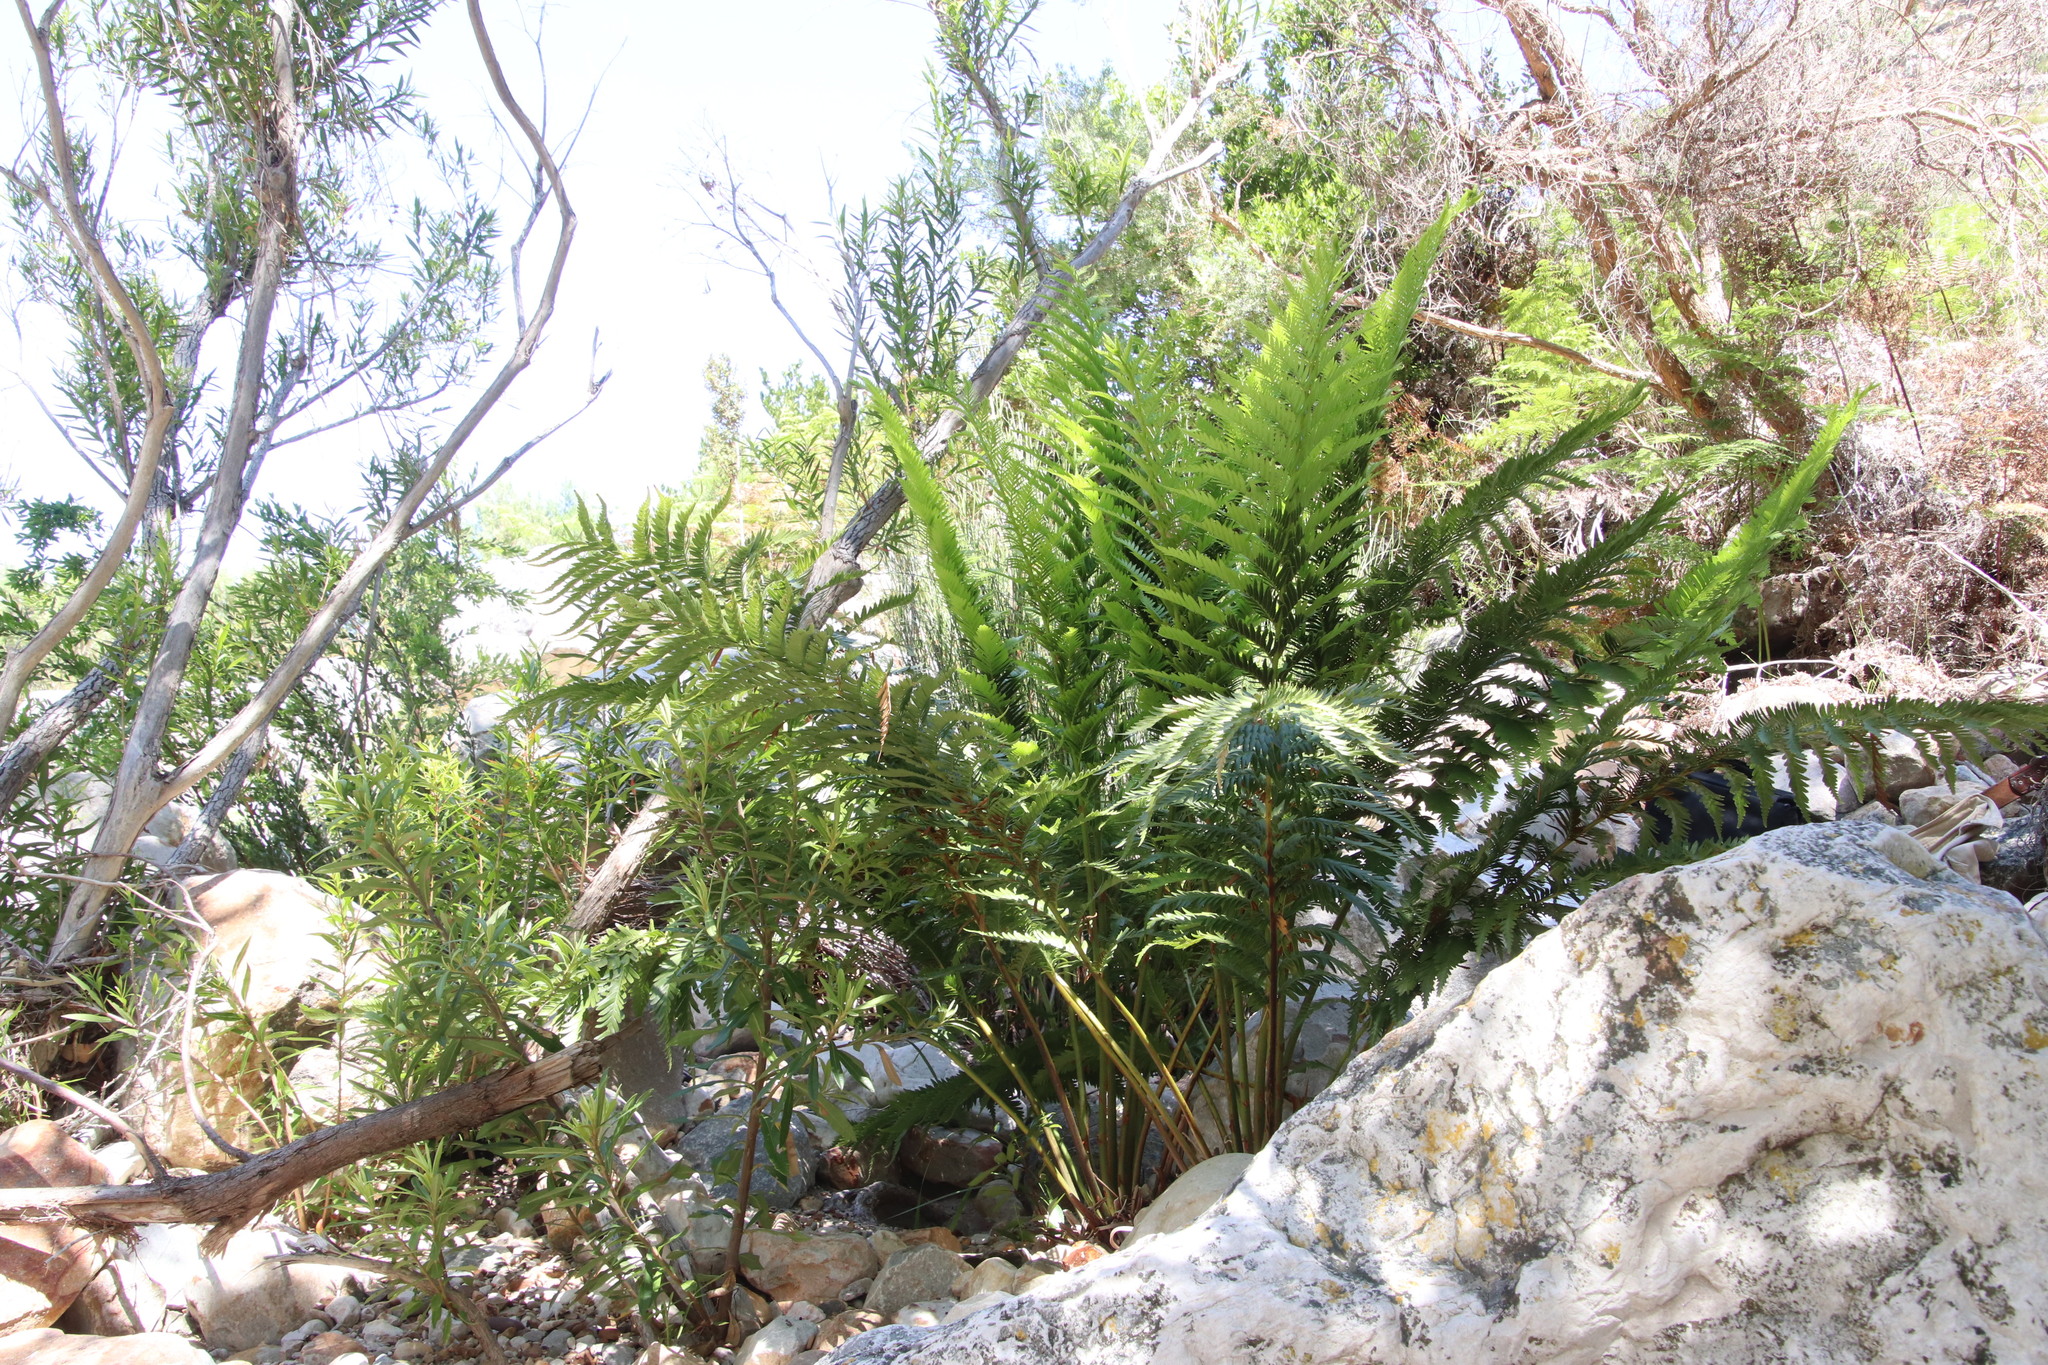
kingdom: Plantae
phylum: Tracheophyta
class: Polypodiopsida
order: Osmundales
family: Osmundaceae
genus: Todea
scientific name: Todea barbara
